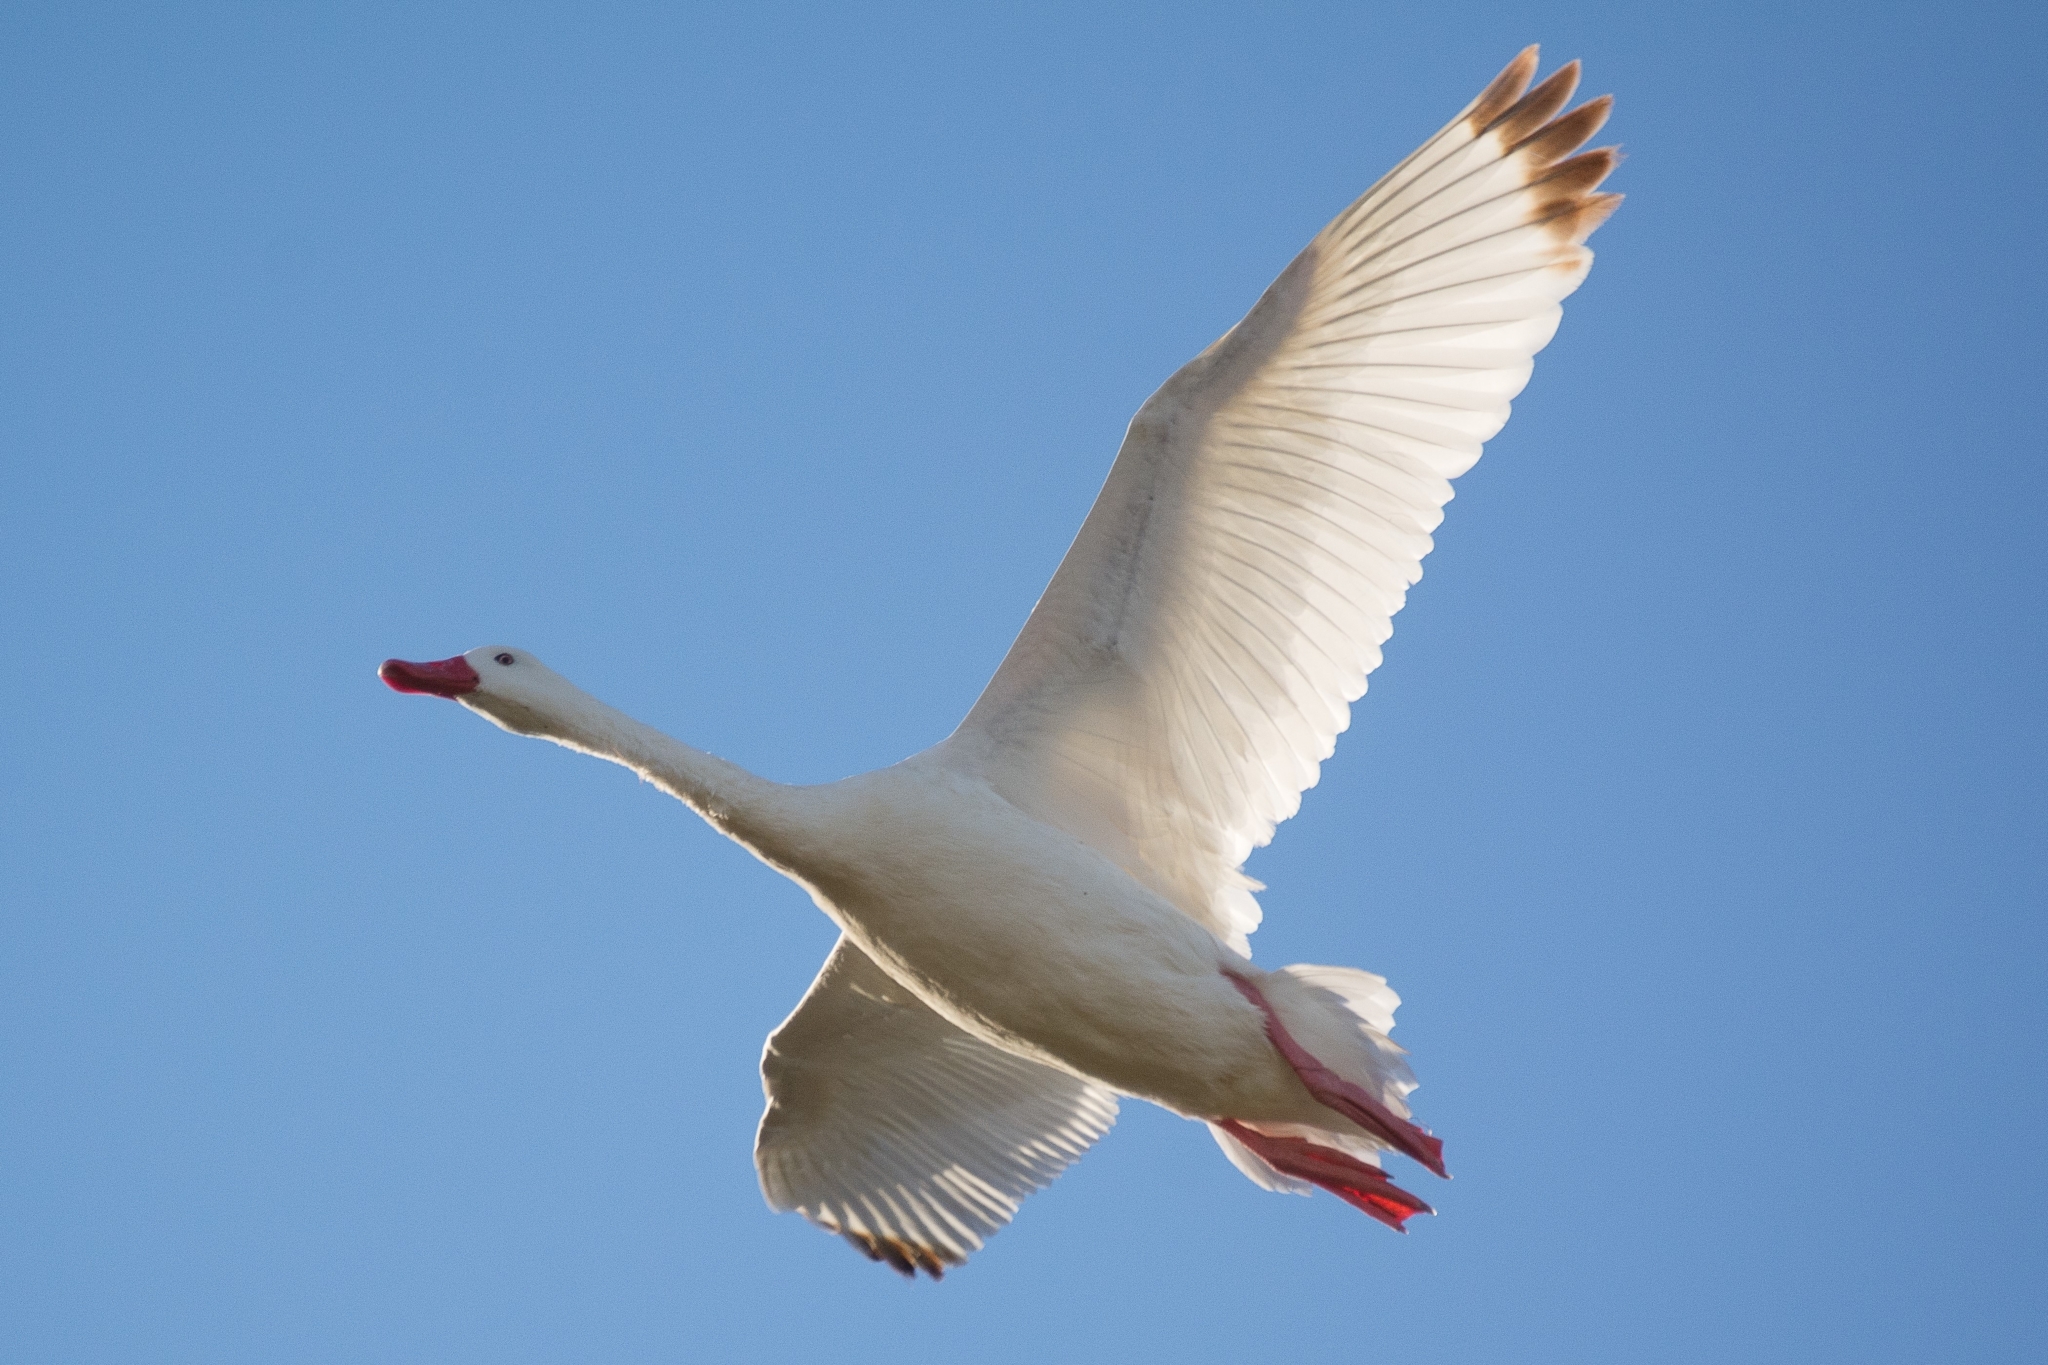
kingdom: Animalia
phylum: Chordata
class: Aves
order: Anseriformes
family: Anatidae
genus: Coscoroba
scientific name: Coscoroba coscoroba
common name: Coscoroba swan
